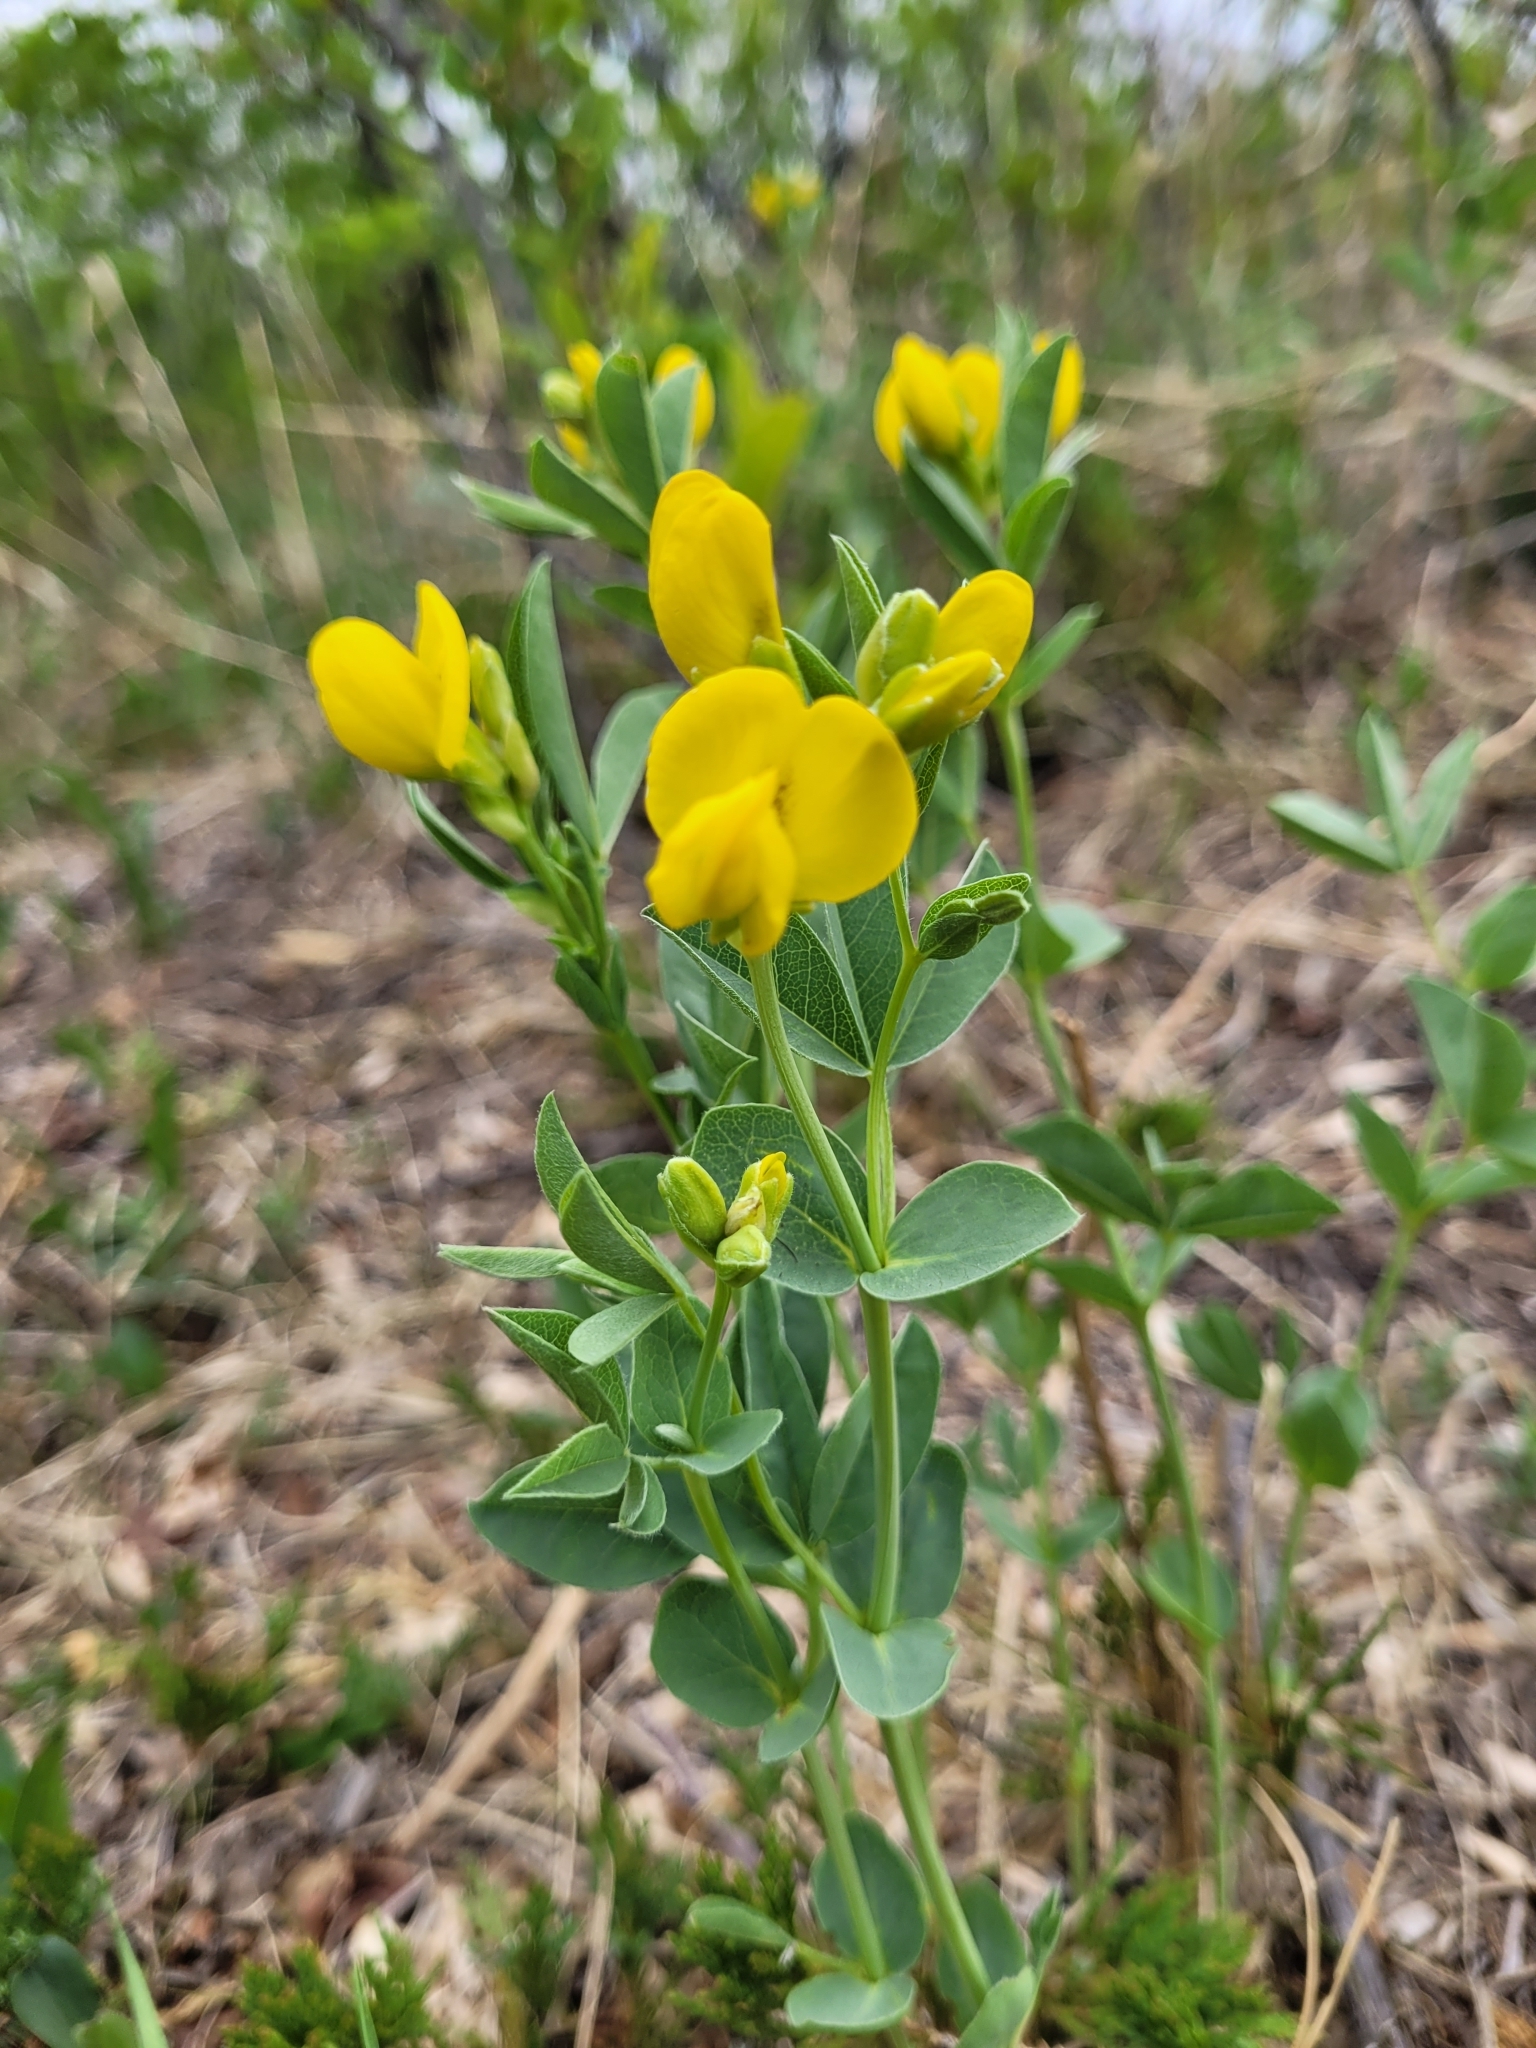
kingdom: Plantae
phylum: Tracheophyta
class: Magnoliopsida
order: Fabales
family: Fabaceae
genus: Thermopsis
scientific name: Thermopsis rhombifolia
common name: Circle-pod-pea
